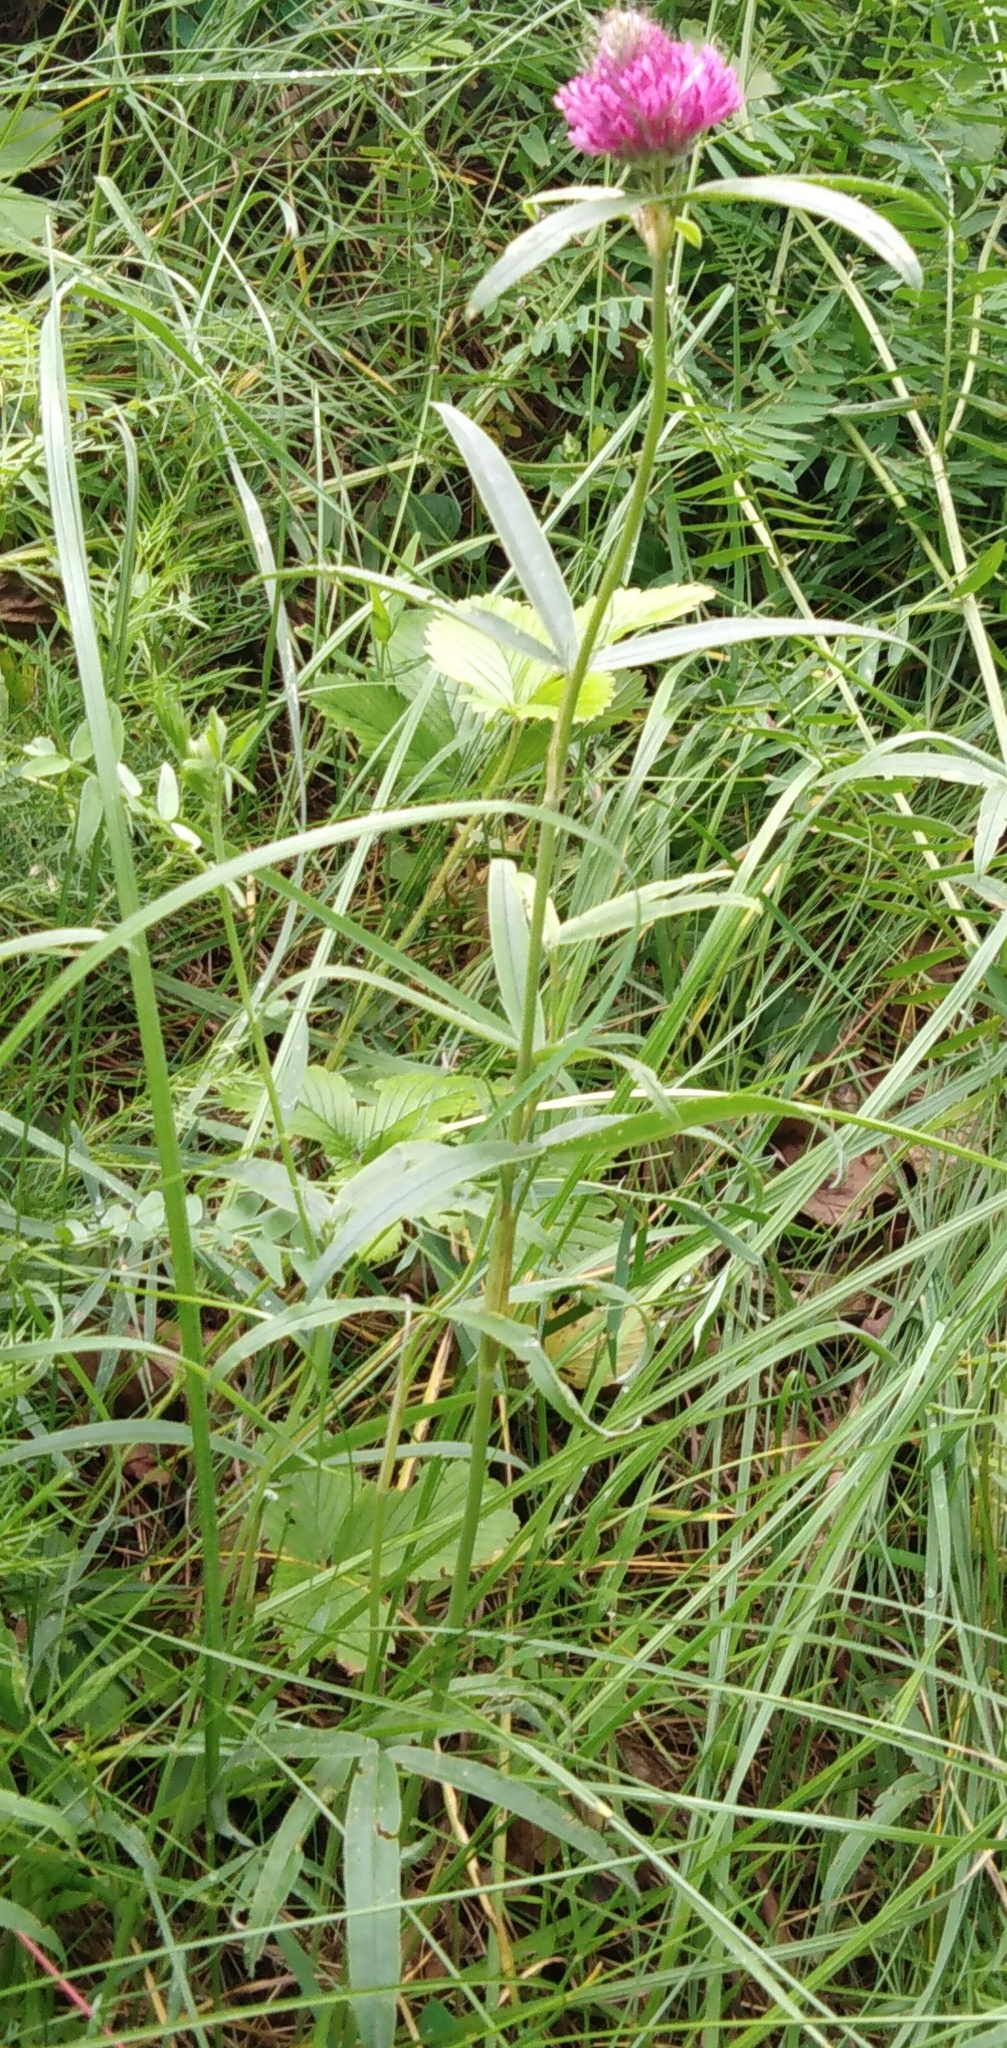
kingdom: Plantae
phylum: Tracheophyta
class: Magnoliopsida
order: Fabales
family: Fabaceae
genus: Trifolium
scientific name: Trifolium alpestre
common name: Owl-head clover
